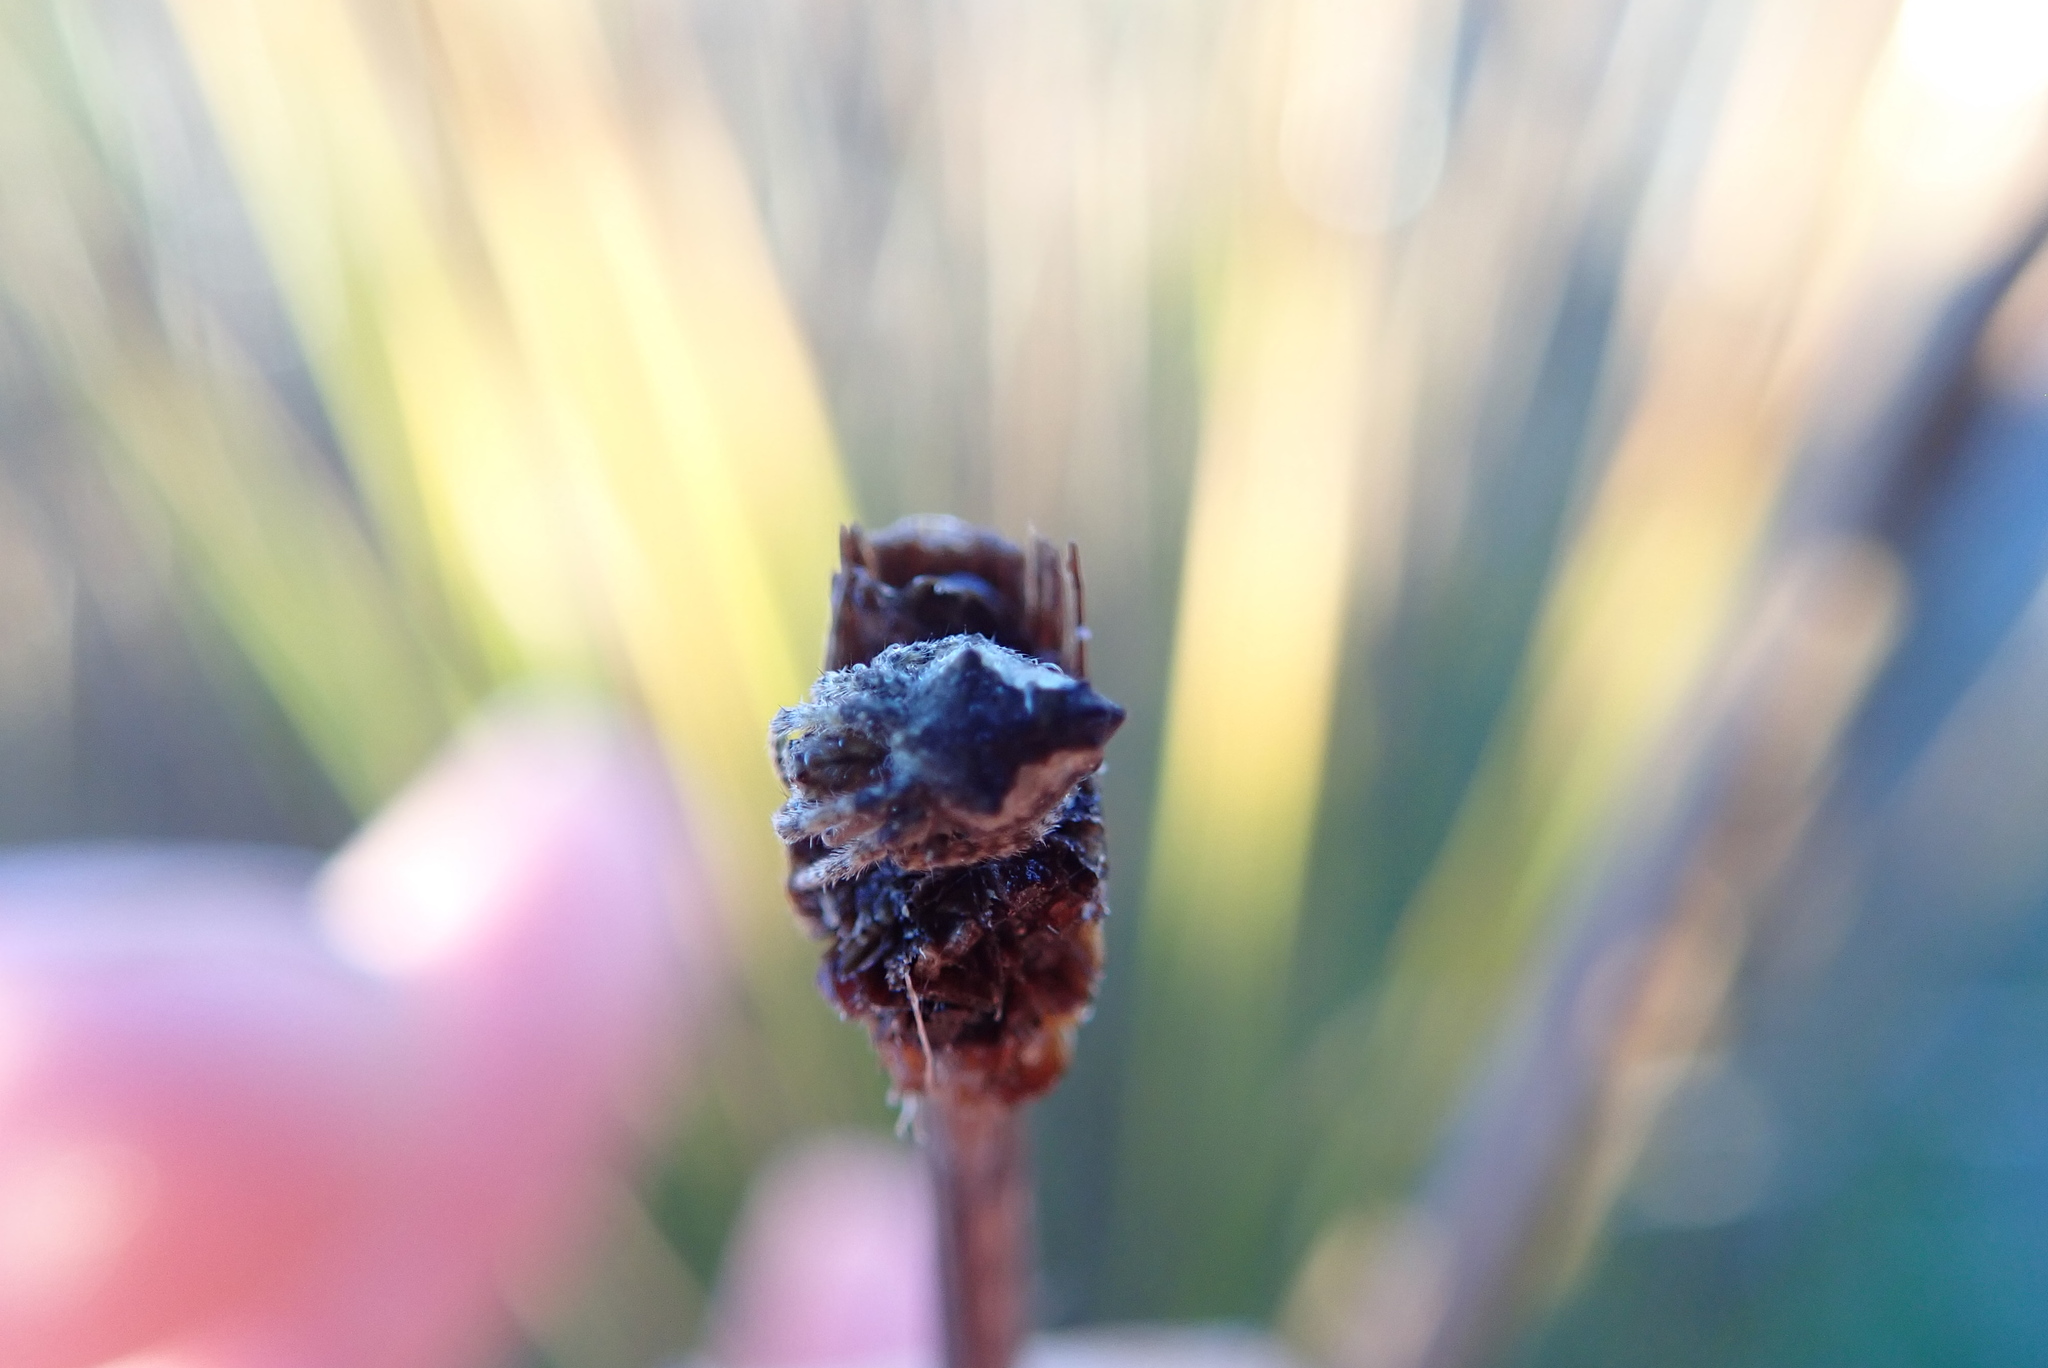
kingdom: Animalia
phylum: Arthropoda
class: Arachnida
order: Araneae
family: Araneidae
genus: Eriophora
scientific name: Eriophora pustulosa
